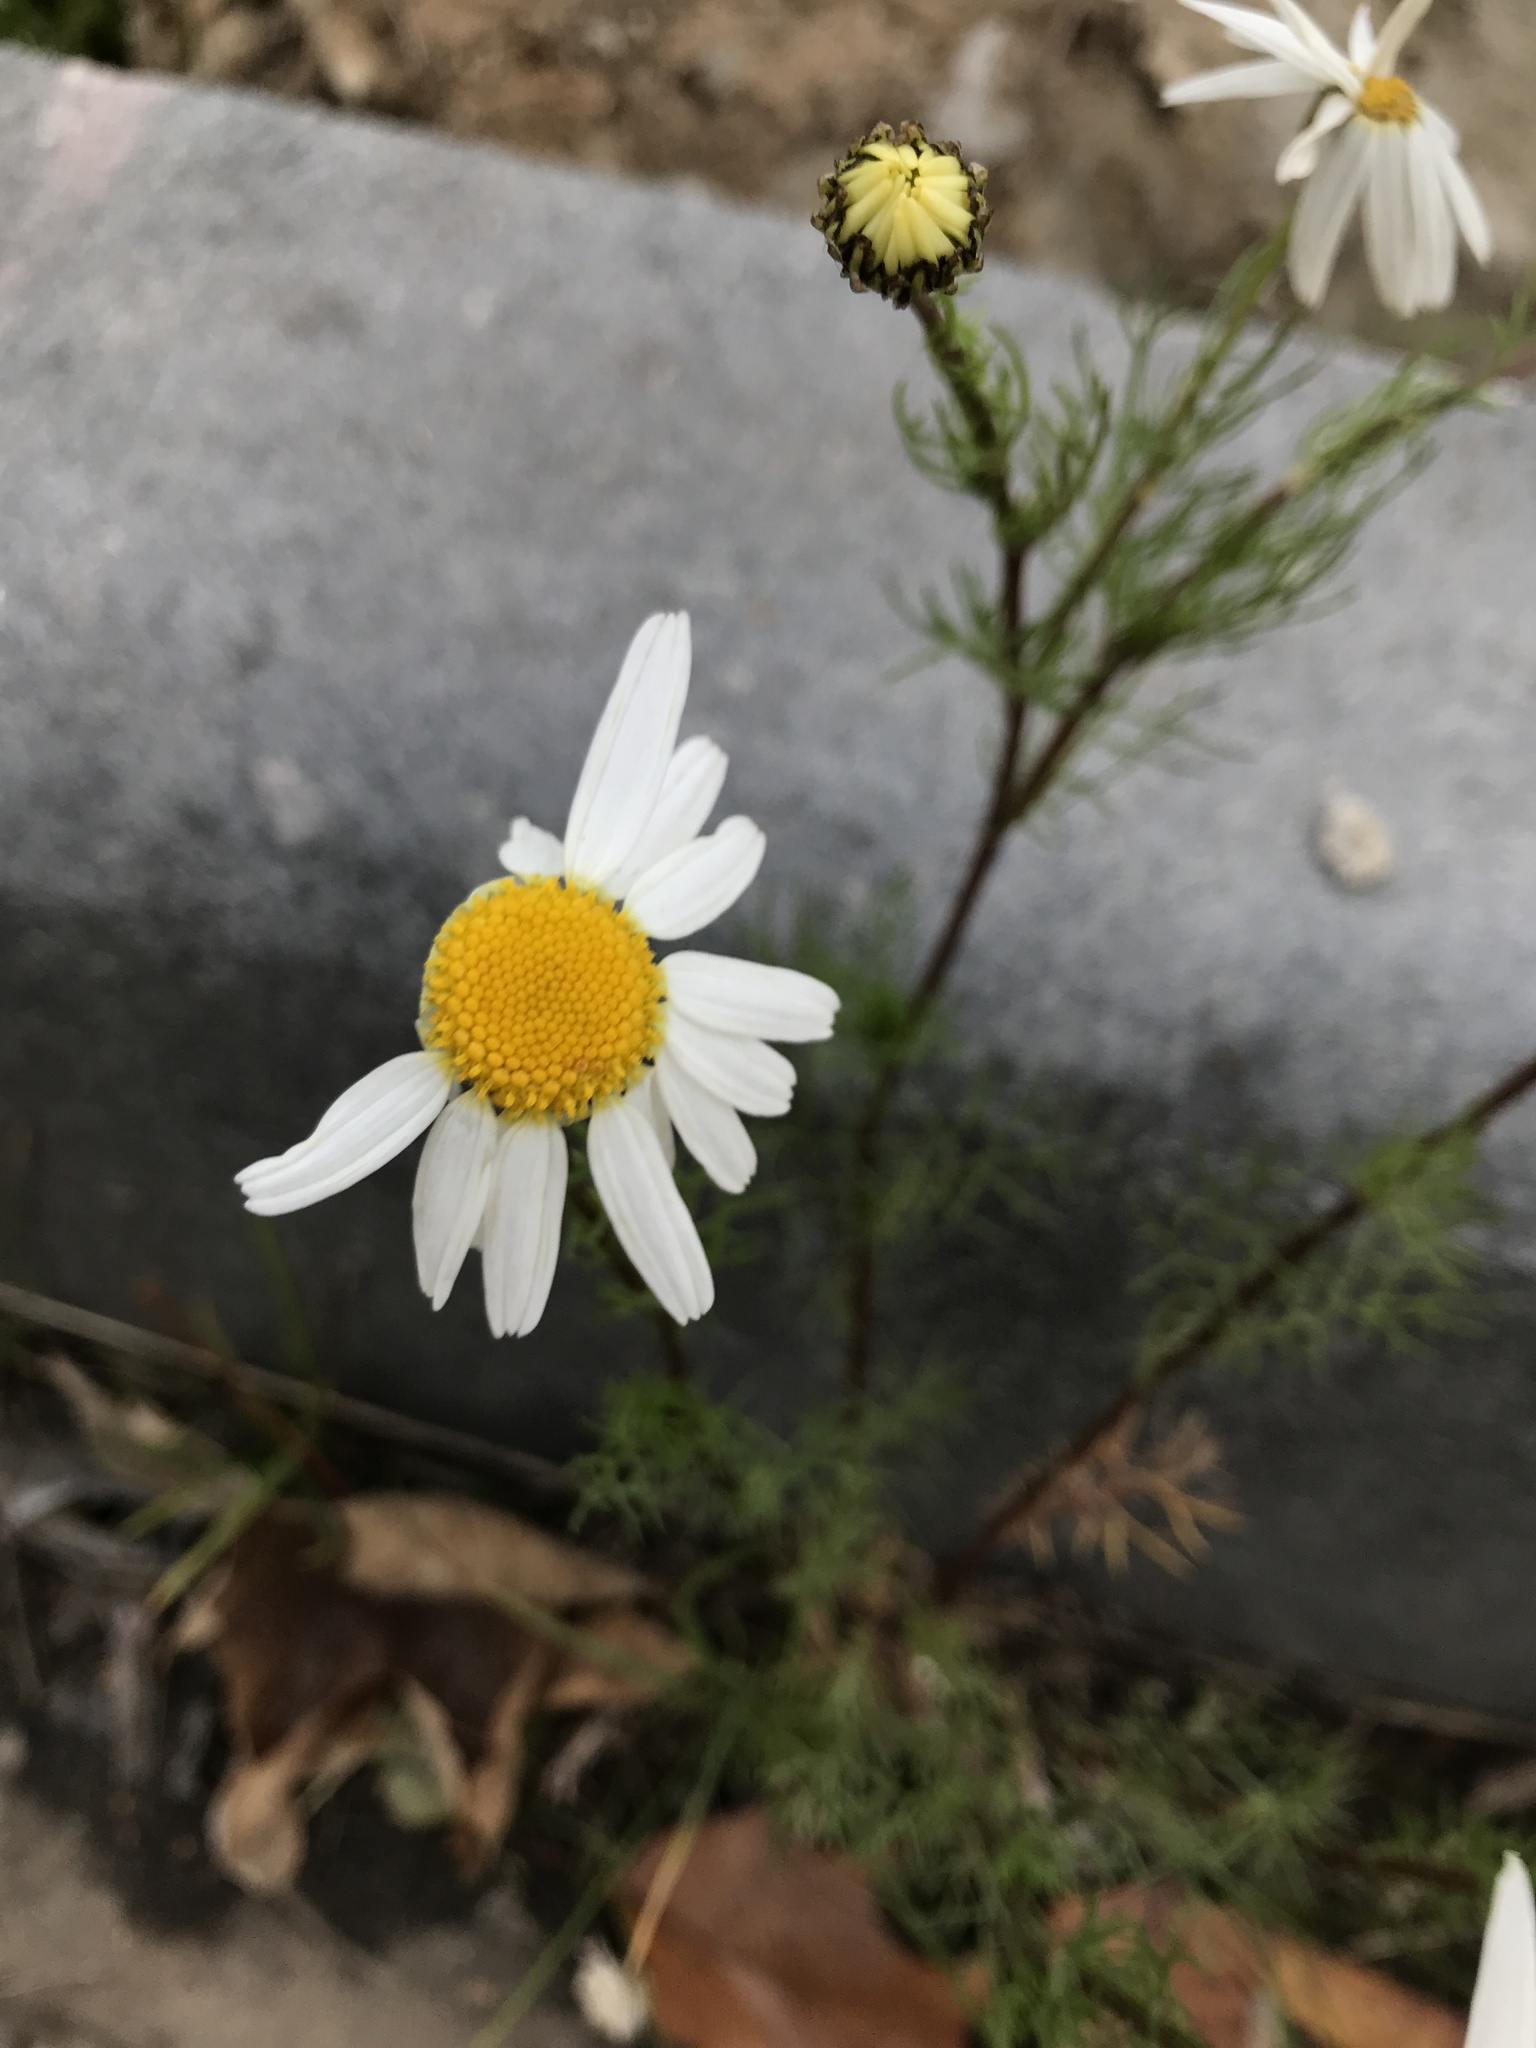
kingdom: Plantae
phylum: Tracheophyta
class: Magnoliopsida
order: Asterales
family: Asteraceae
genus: Tripleurospermum
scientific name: Tripleurospermum inodorum
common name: Scentless mayweed
